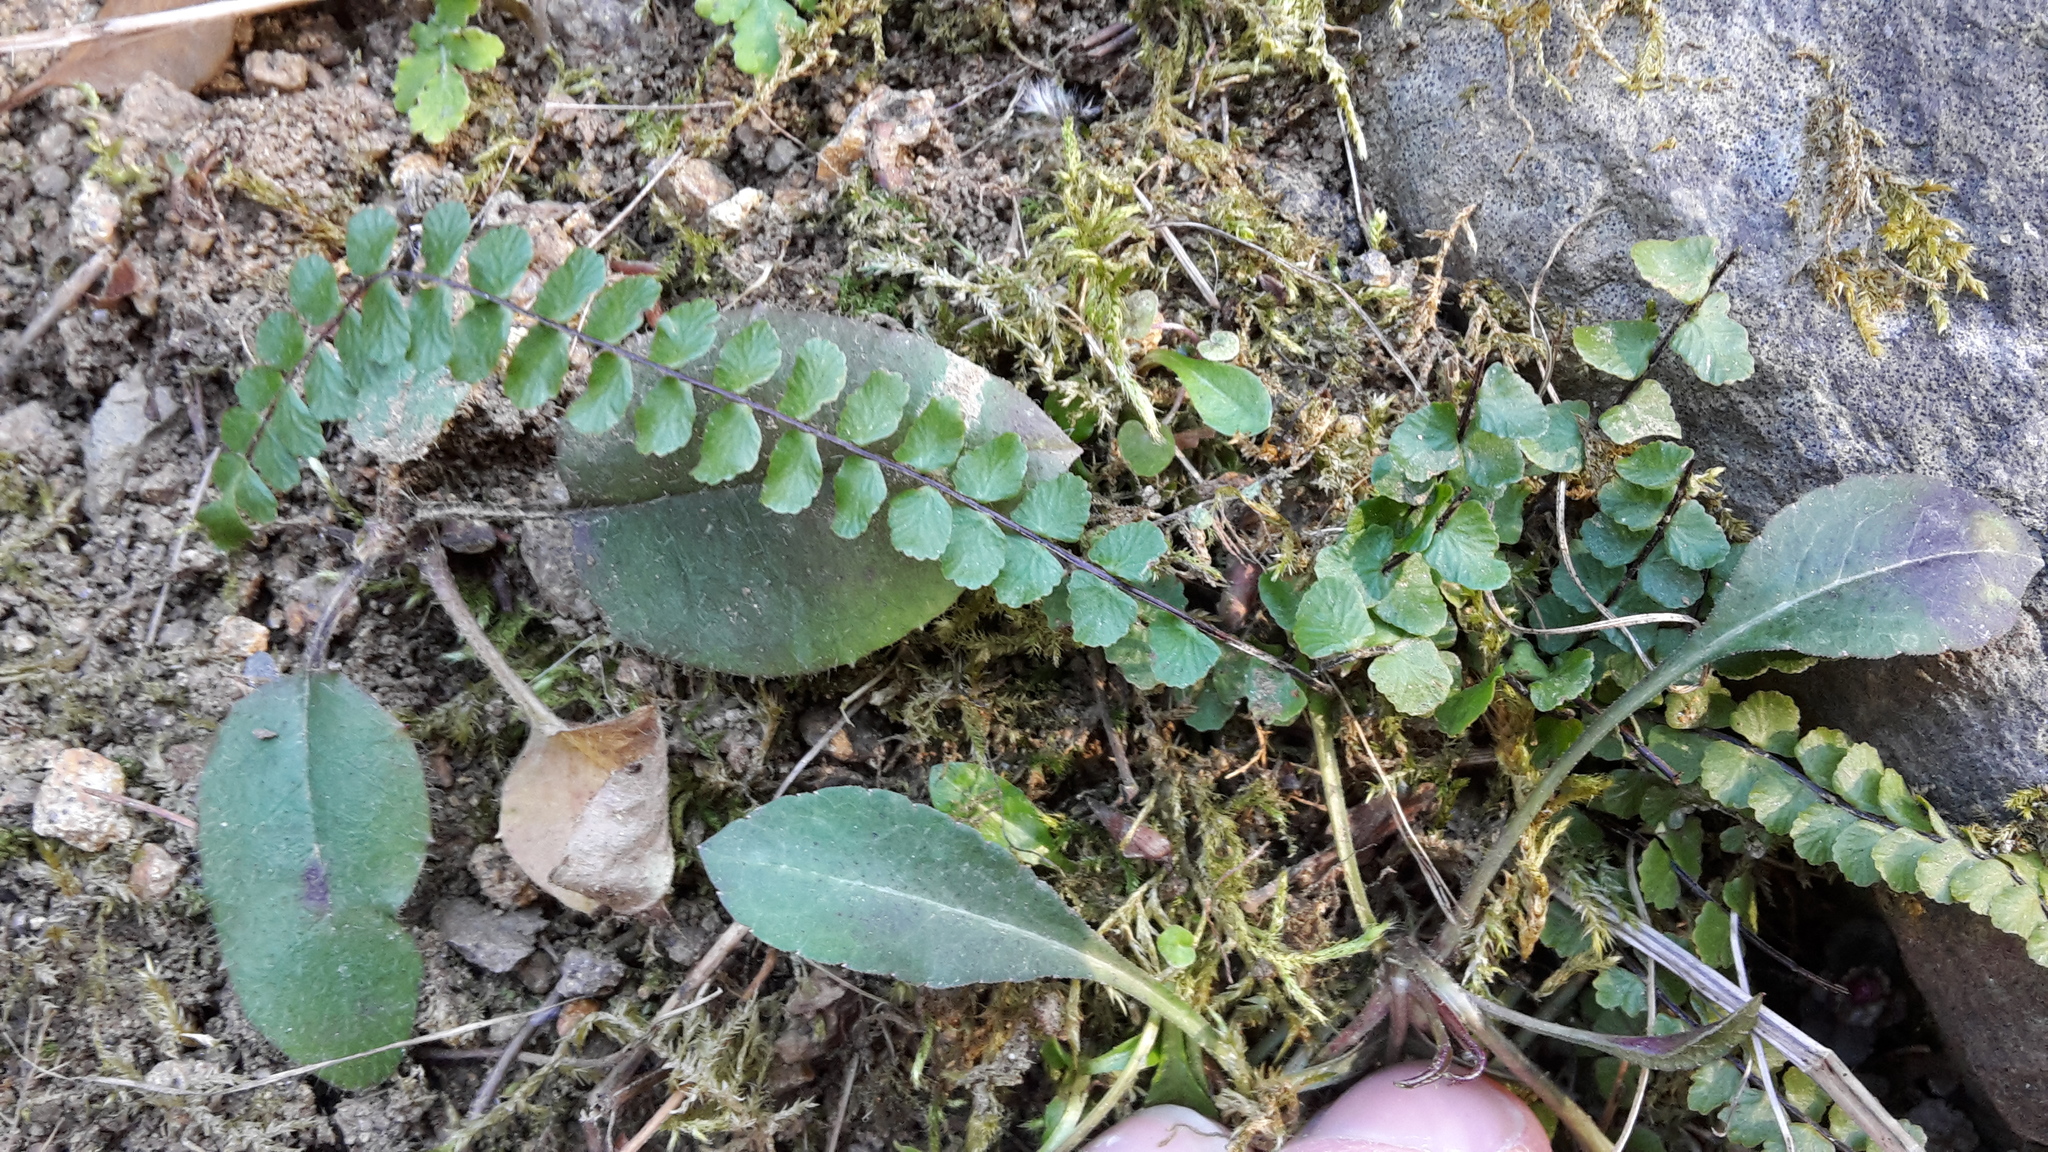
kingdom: Plantae
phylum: Tracheophyta
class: Polypodiopsida
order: Polypodiales
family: Aspleniaceae
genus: Asplenium
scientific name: Asplenium trichomanes
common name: Maidenhair spleenwort
